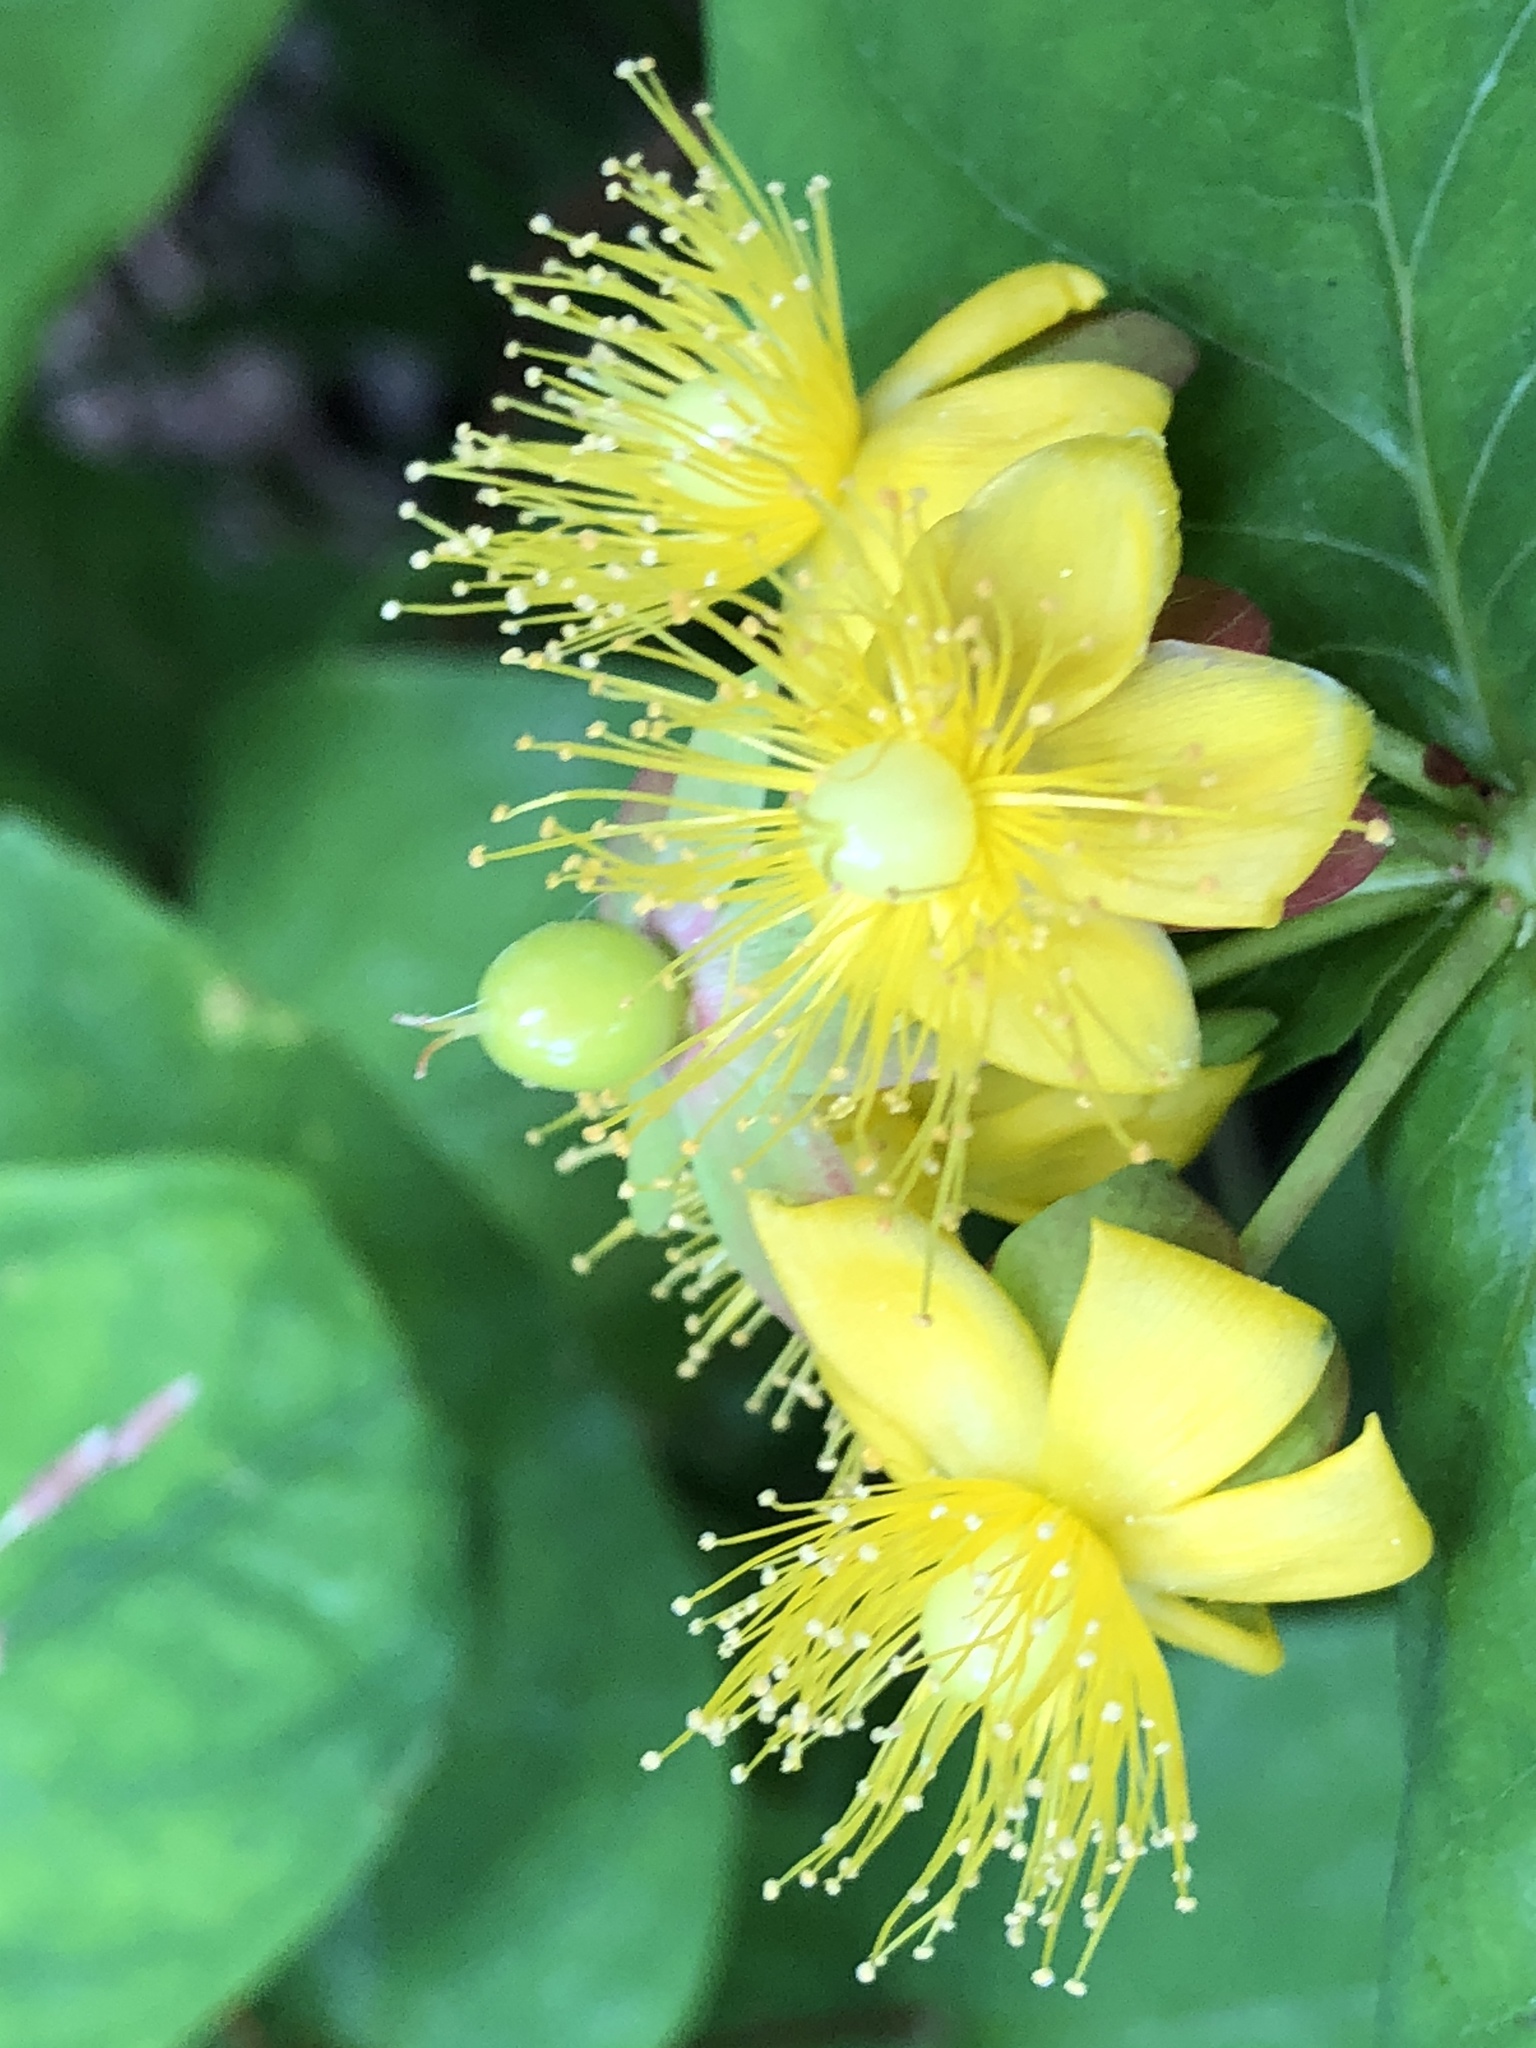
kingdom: Plantae
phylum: Tracheophyta
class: Magnoliopsida
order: Malpighiales
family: Hypericaceae
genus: Hypericum
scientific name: Hypericum androsaemum
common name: Sweet-amber
